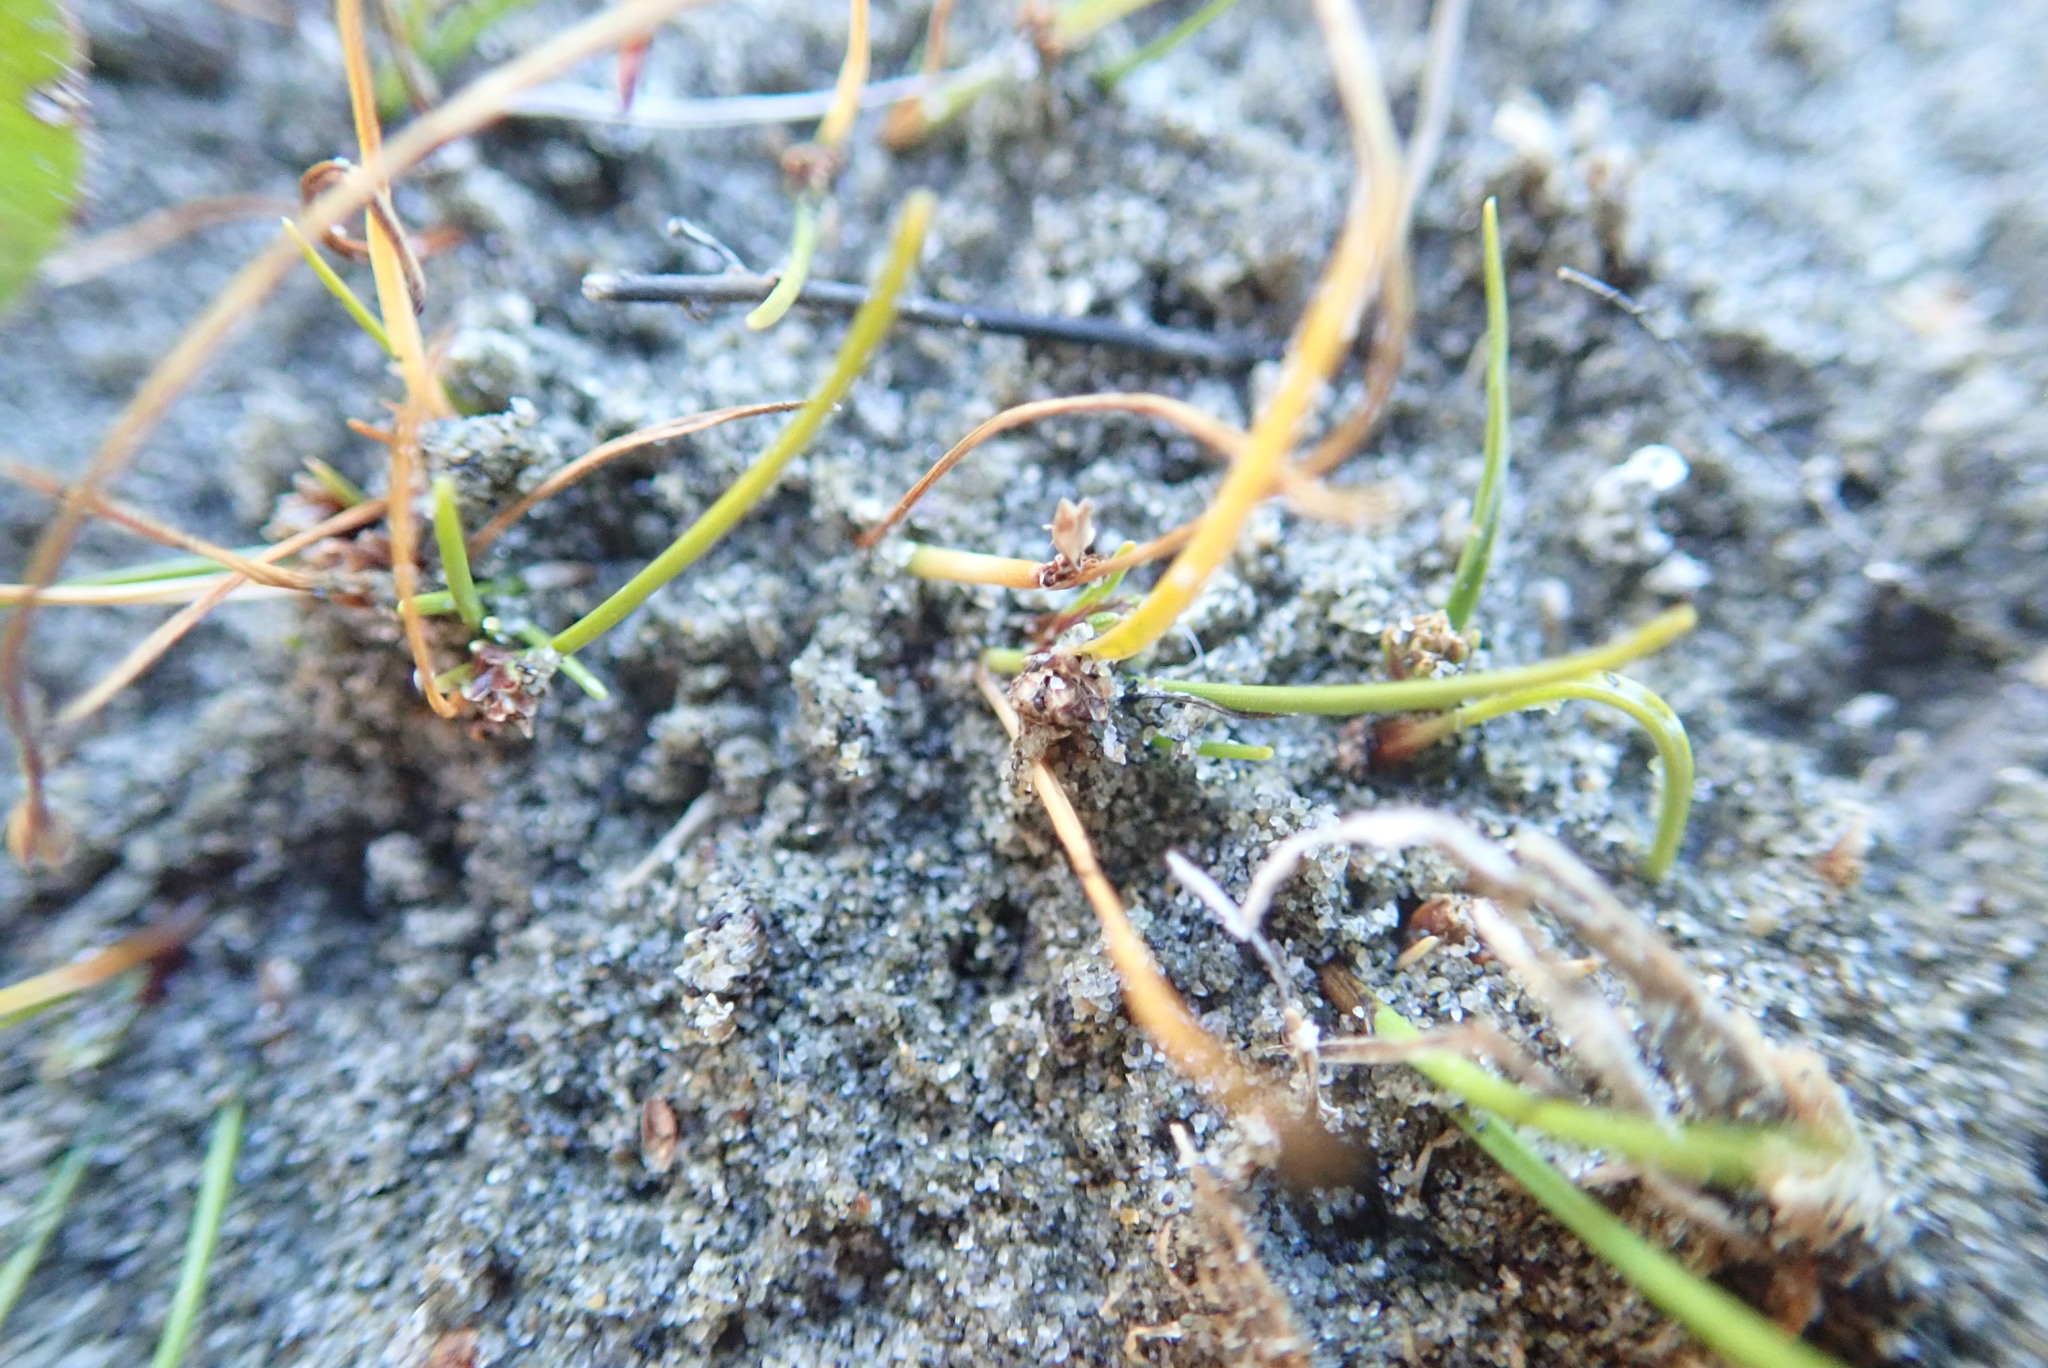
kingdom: Plantae
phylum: Tracheophyta
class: Liliopsida
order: Poales
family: Cyperaceae
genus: Isolepis
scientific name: Isolepis basilaris
